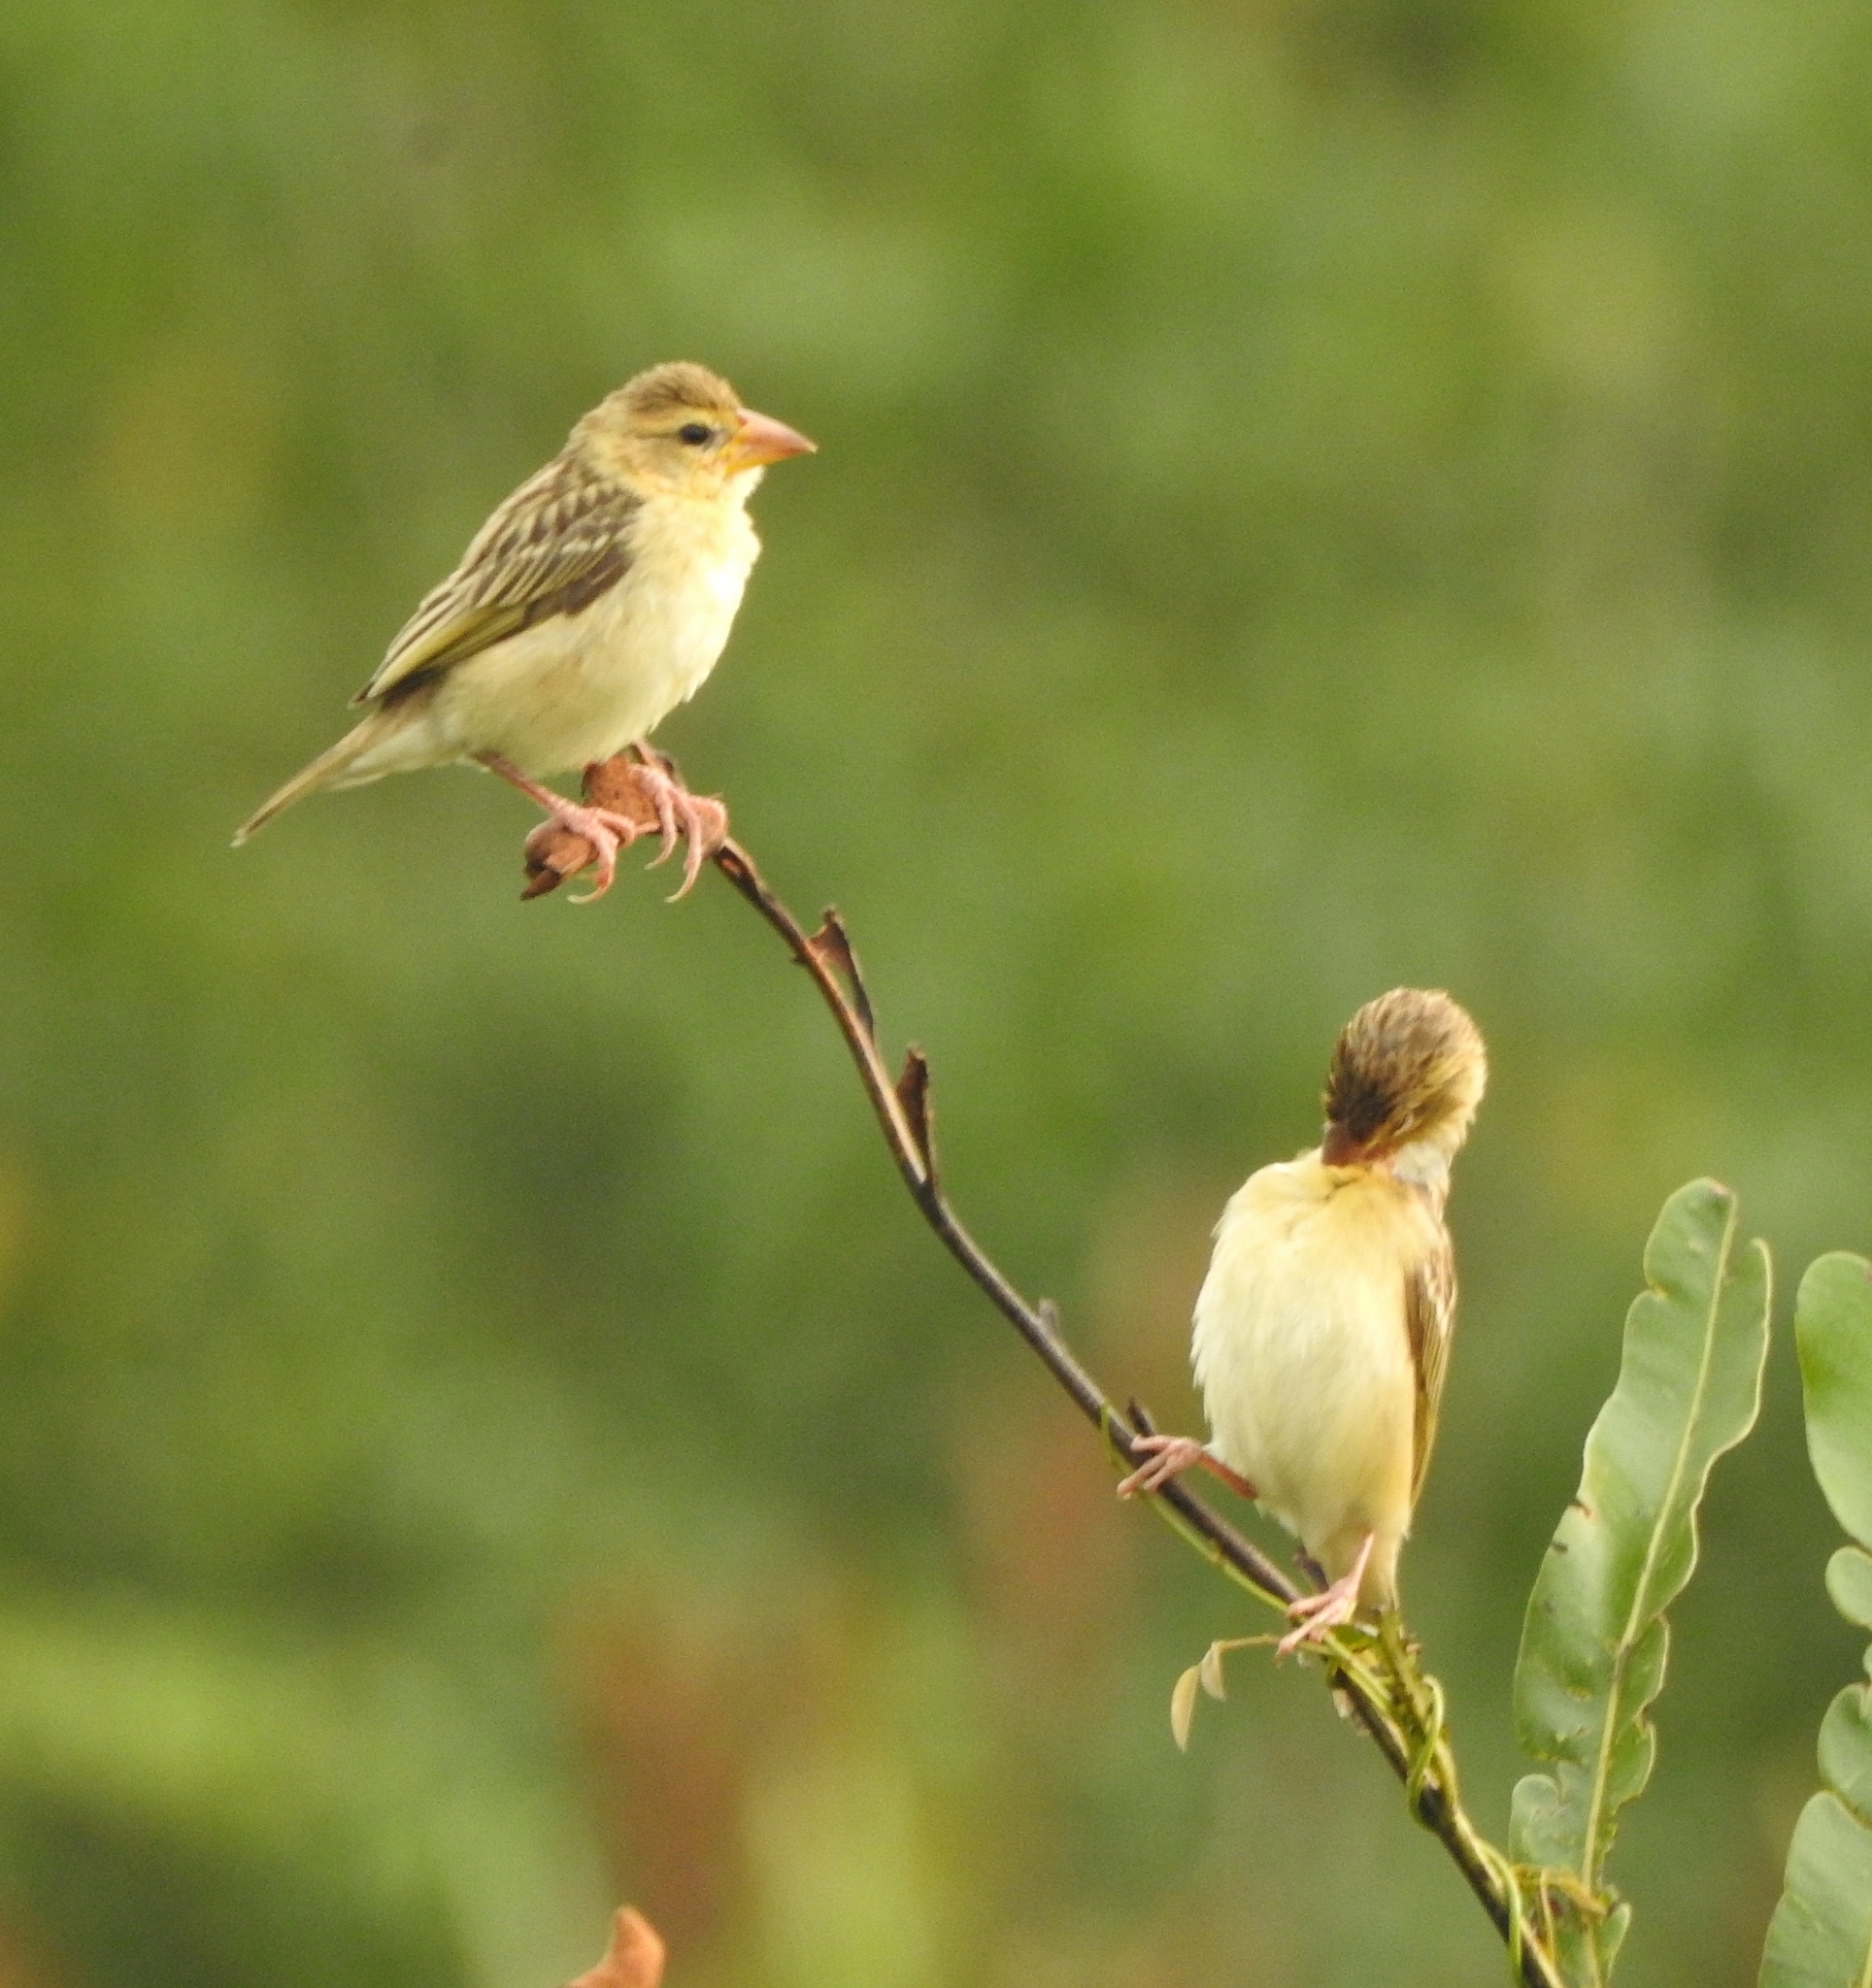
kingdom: Animalia
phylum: Chordata
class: Aves
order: Passeriformes
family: Ploceidae
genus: Ploceus
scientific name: Ploceus philippinus
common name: Baya weaver
